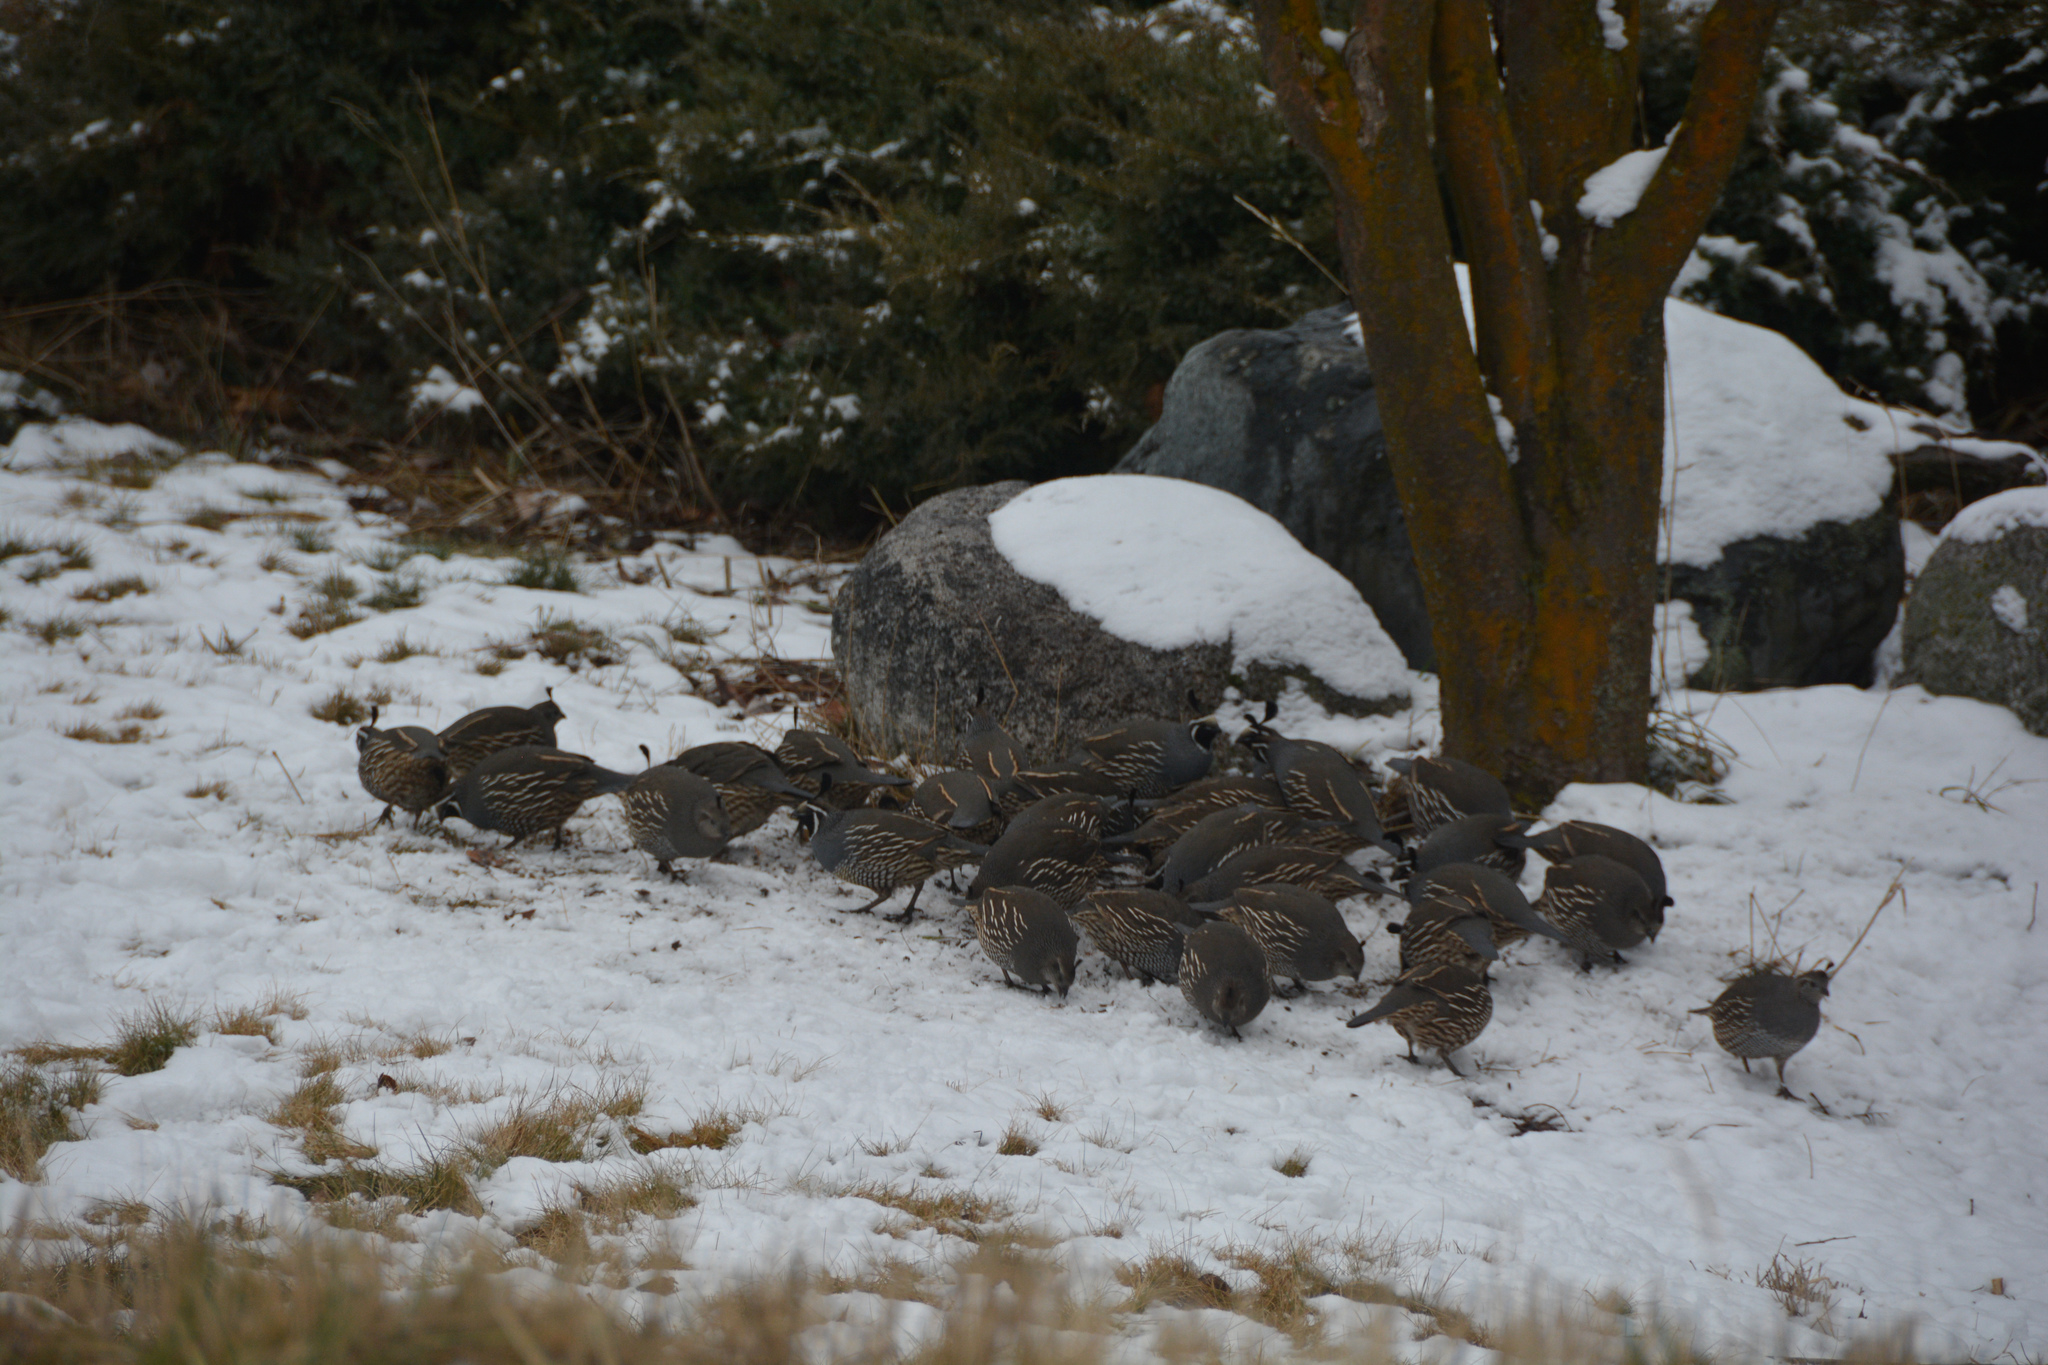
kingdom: Animalia
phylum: Chordata
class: Aves
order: Galliformes
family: Odontophoridae
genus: Callipepla
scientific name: Callipepla californica
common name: California quail
